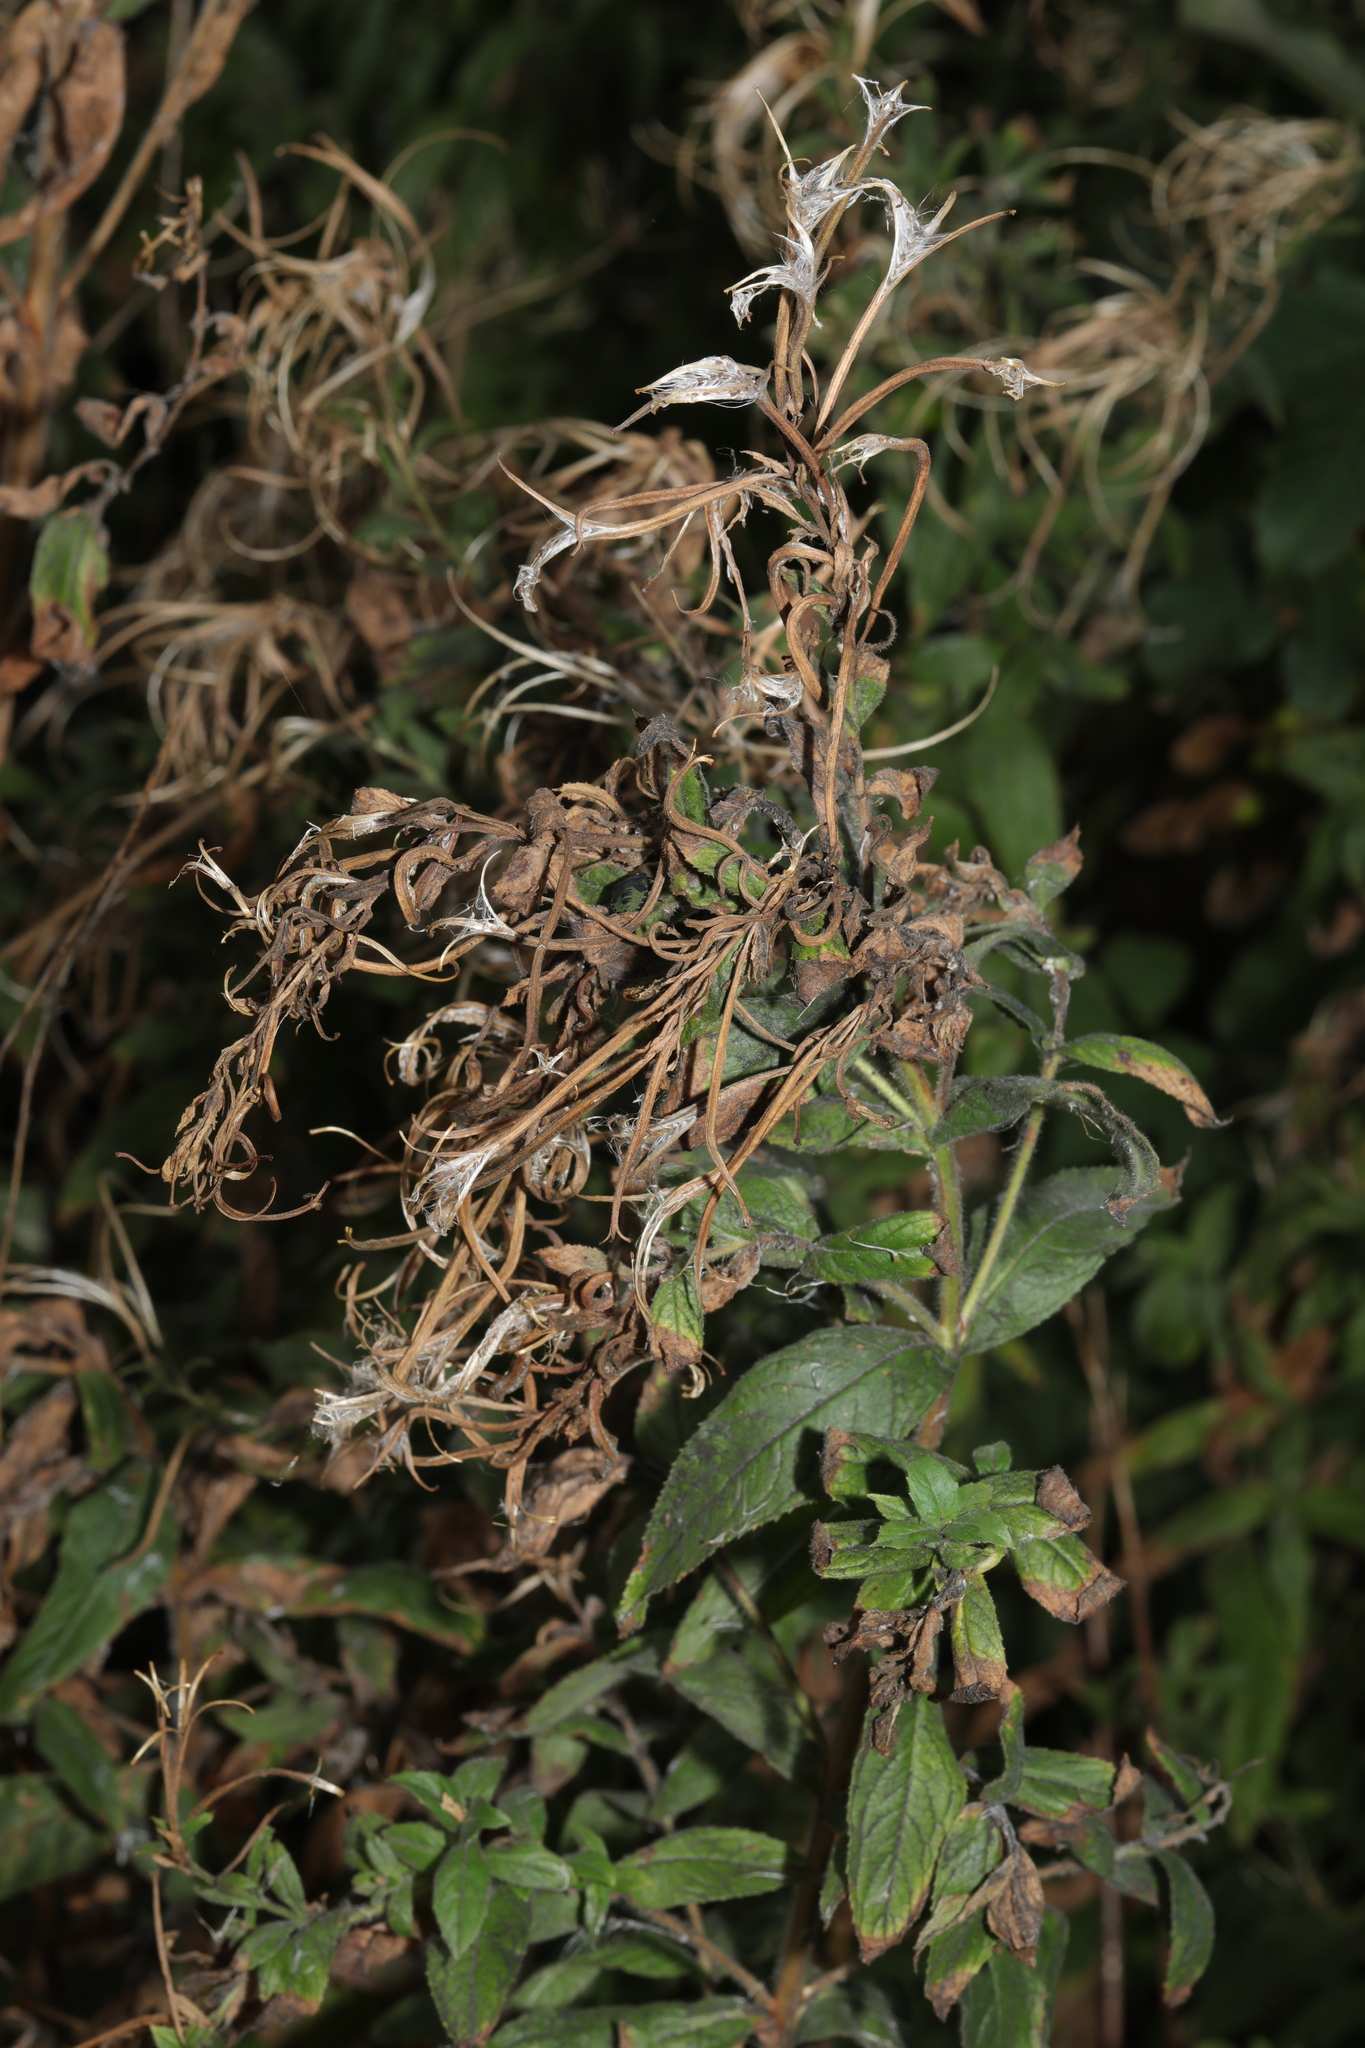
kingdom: Plantae
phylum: Tracheophyta
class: Magnoliopsida
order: Myrtales
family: Onagraceae
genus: Epilobium
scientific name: Epilobium hirsutum
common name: Great willowherb
